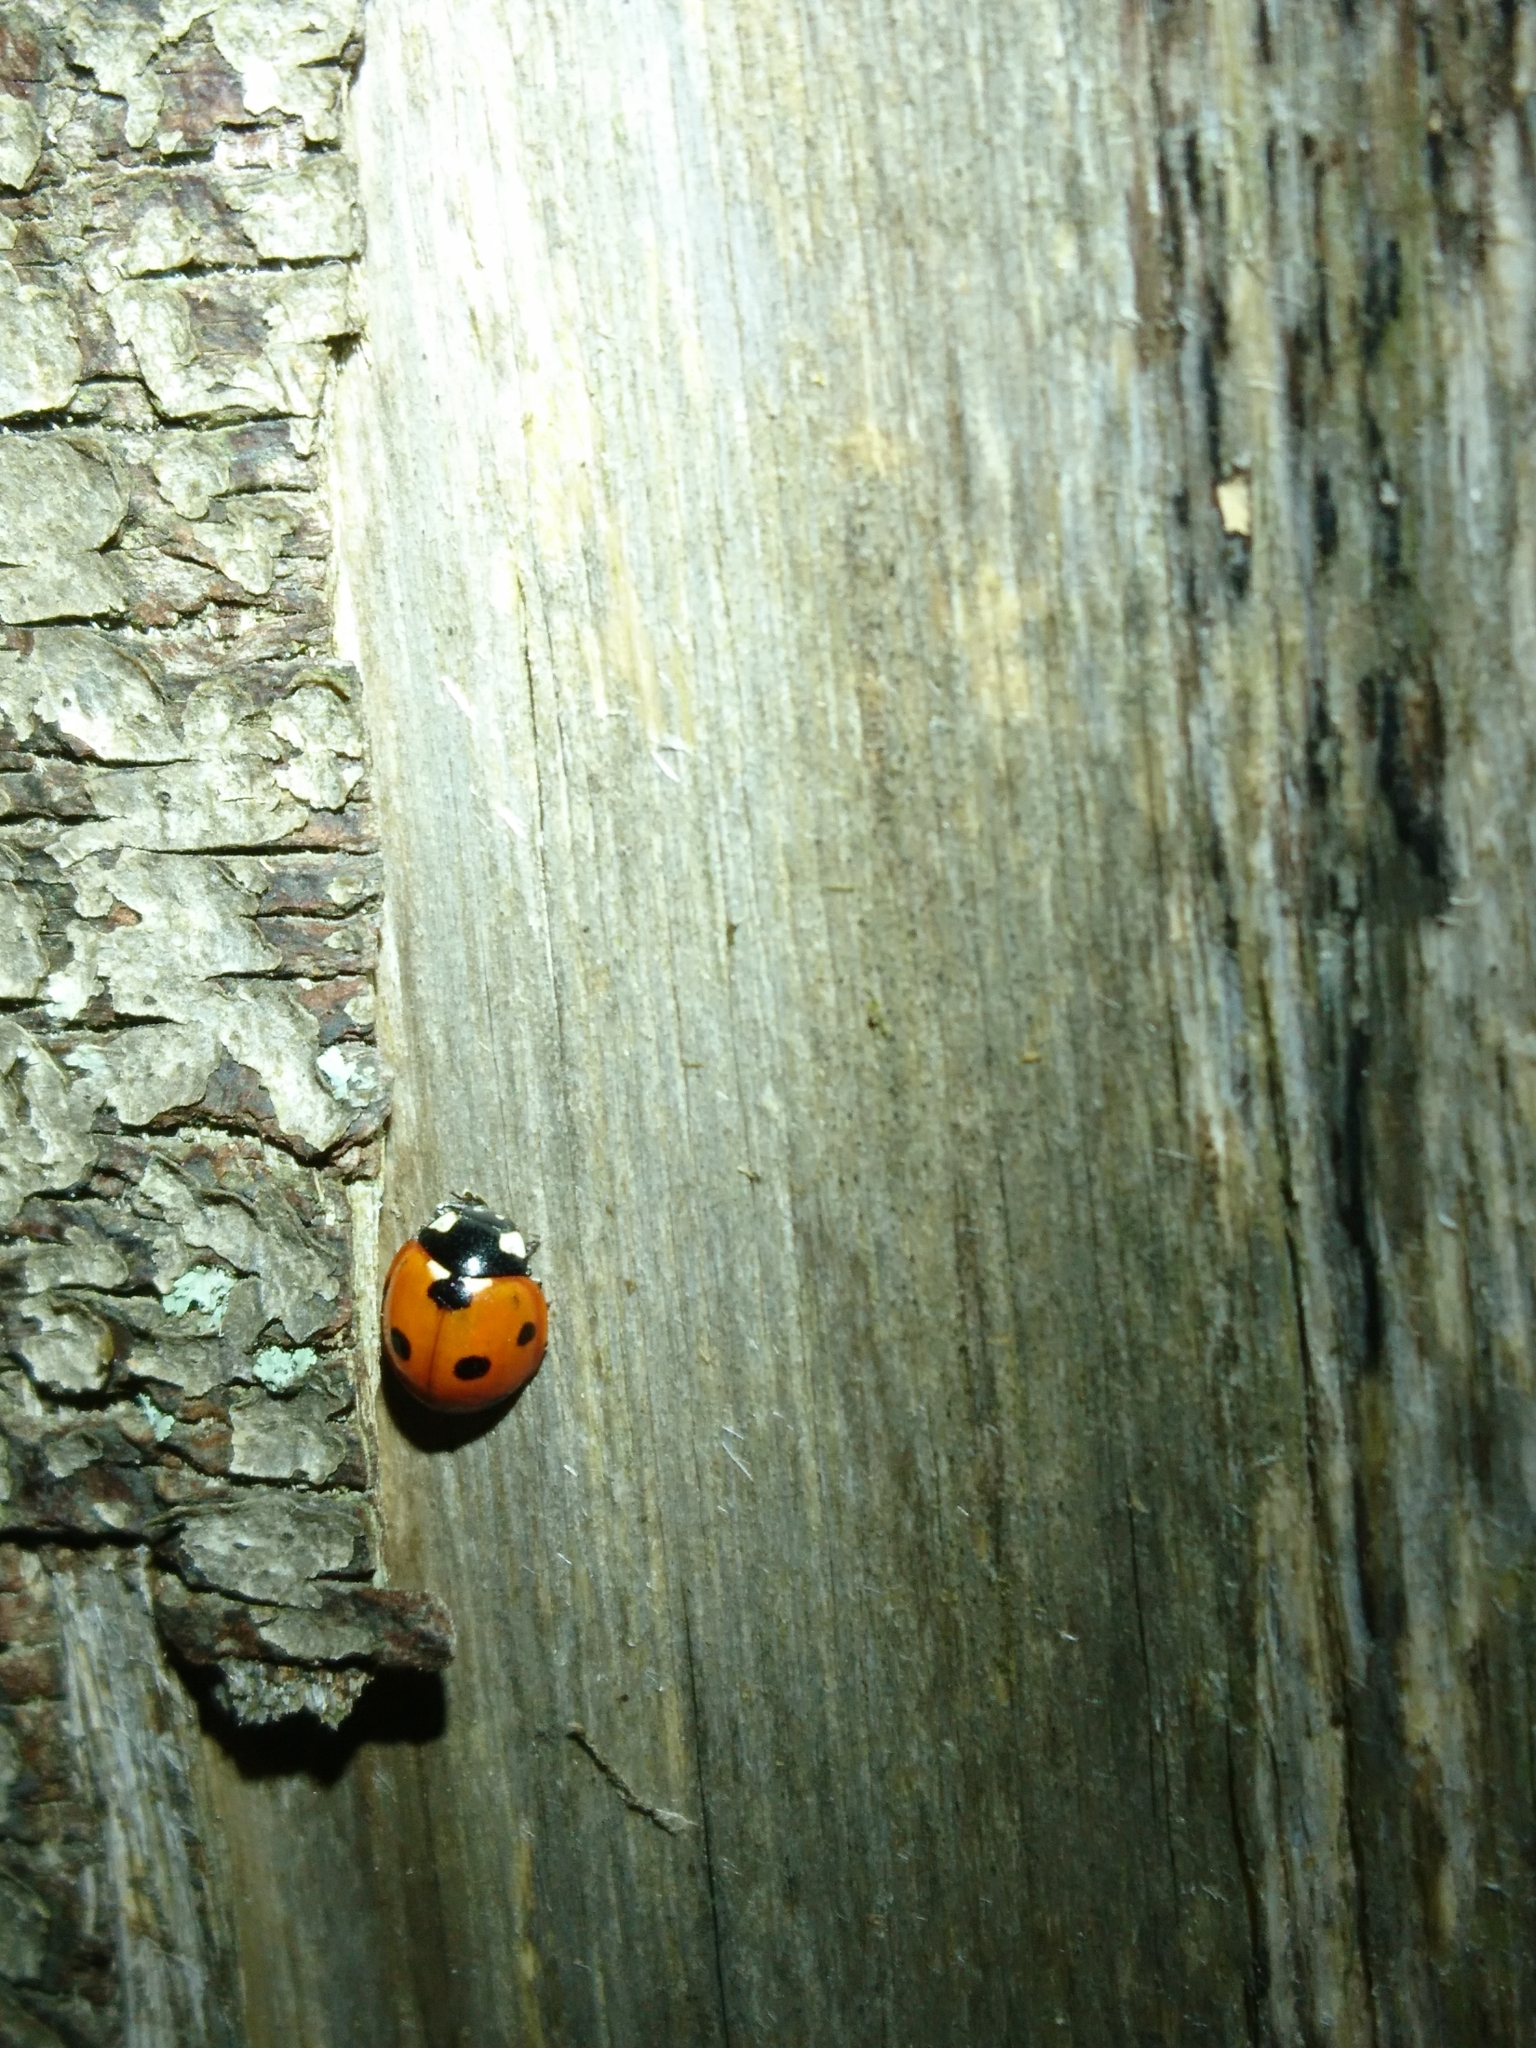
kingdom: Animalia
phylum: Arthropoda
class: Insecta
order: Coleoptera
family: Coccinellidae
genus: Coccinella
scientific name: Coccinella septempunctata
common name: Sevenspotted lady beetle
